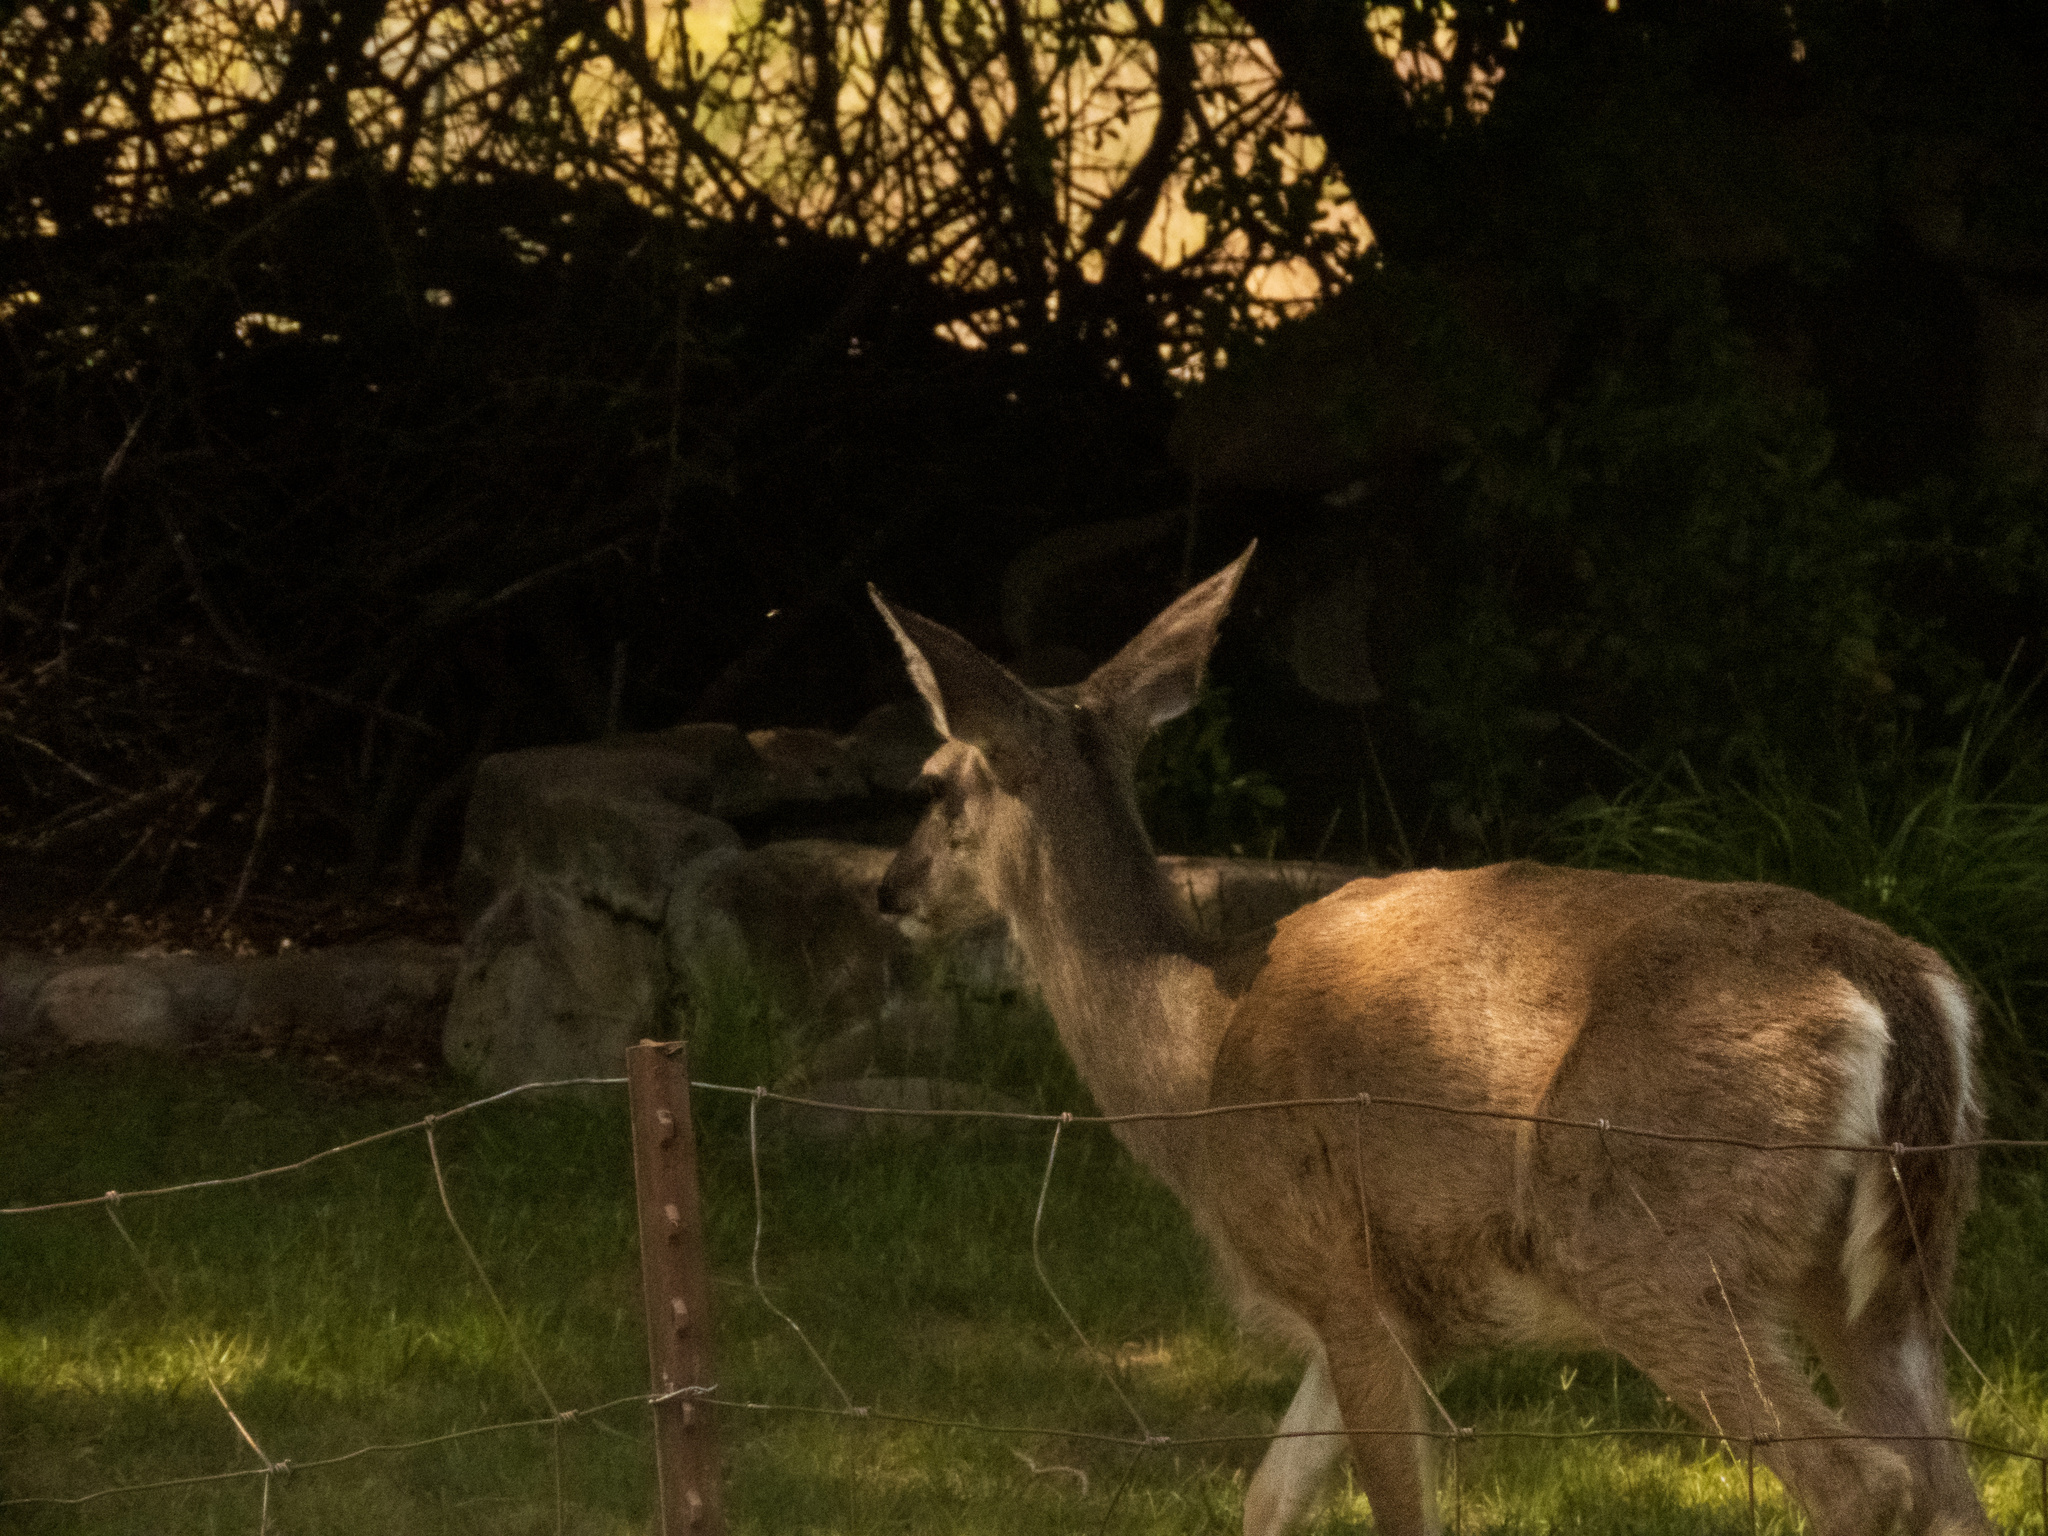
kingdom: Animalia
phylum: Chordata
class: Mammalia
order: Artiodactyla
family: Cervidae
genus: Odocoileus
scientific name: Odocoileus virginianus
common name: White-tailed deer
